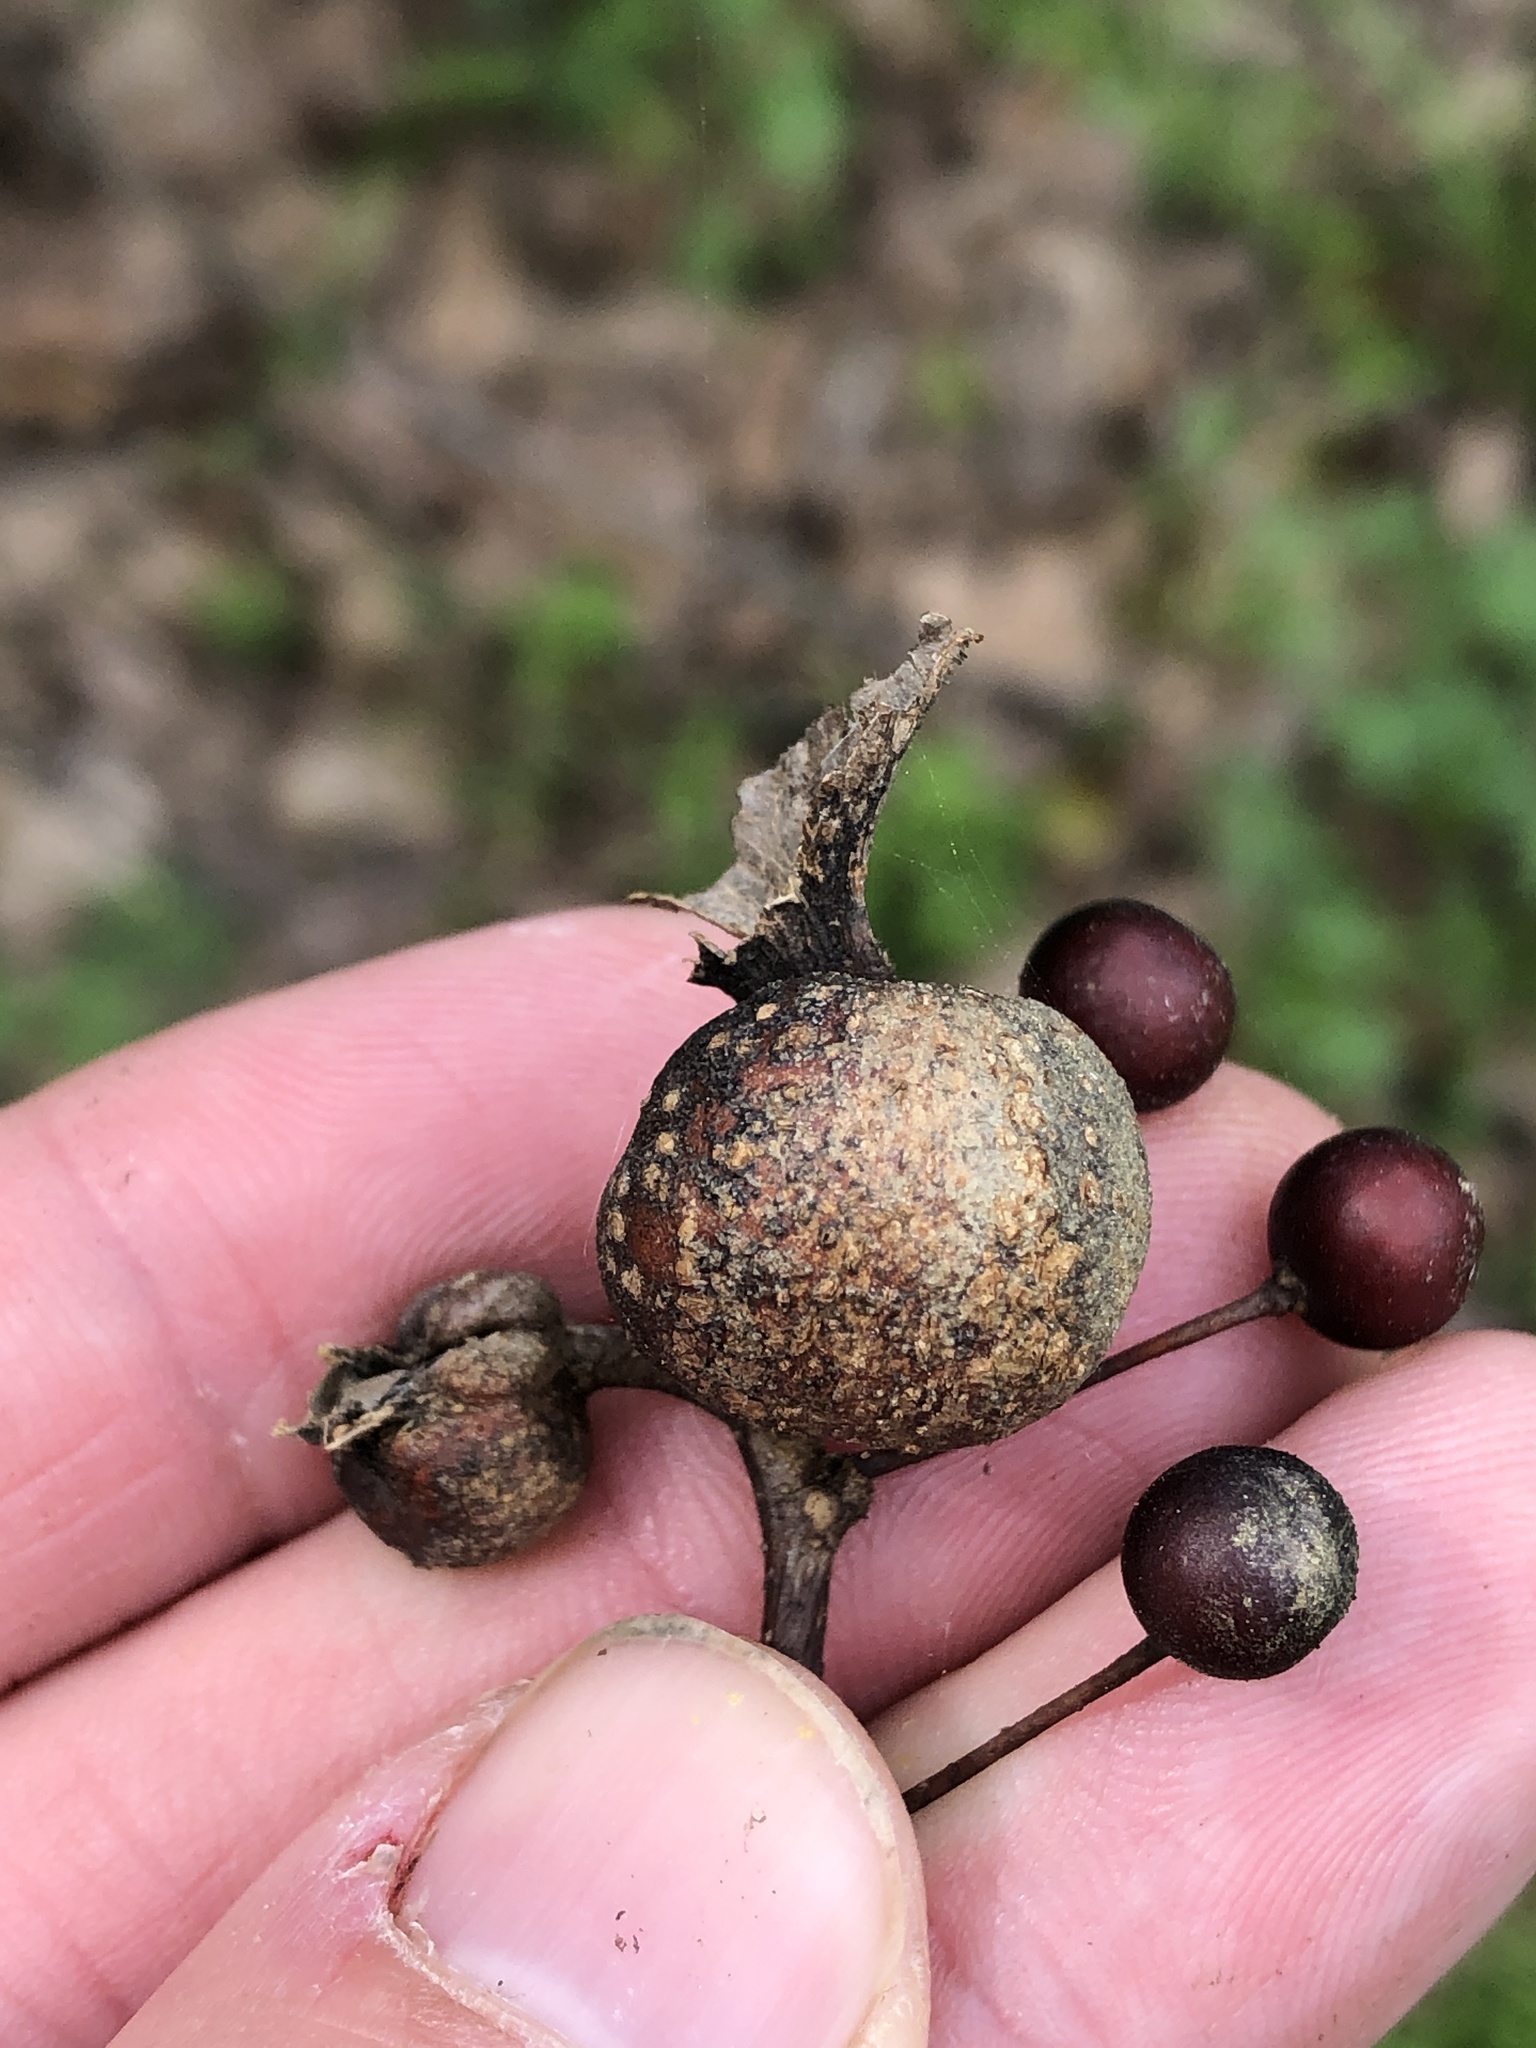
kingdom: Animalia
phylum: Arthropoda
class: Insecta
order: Hemiptera
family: Aphalaridae
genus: Pachypsylla
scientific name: Pachypsylla venusta
